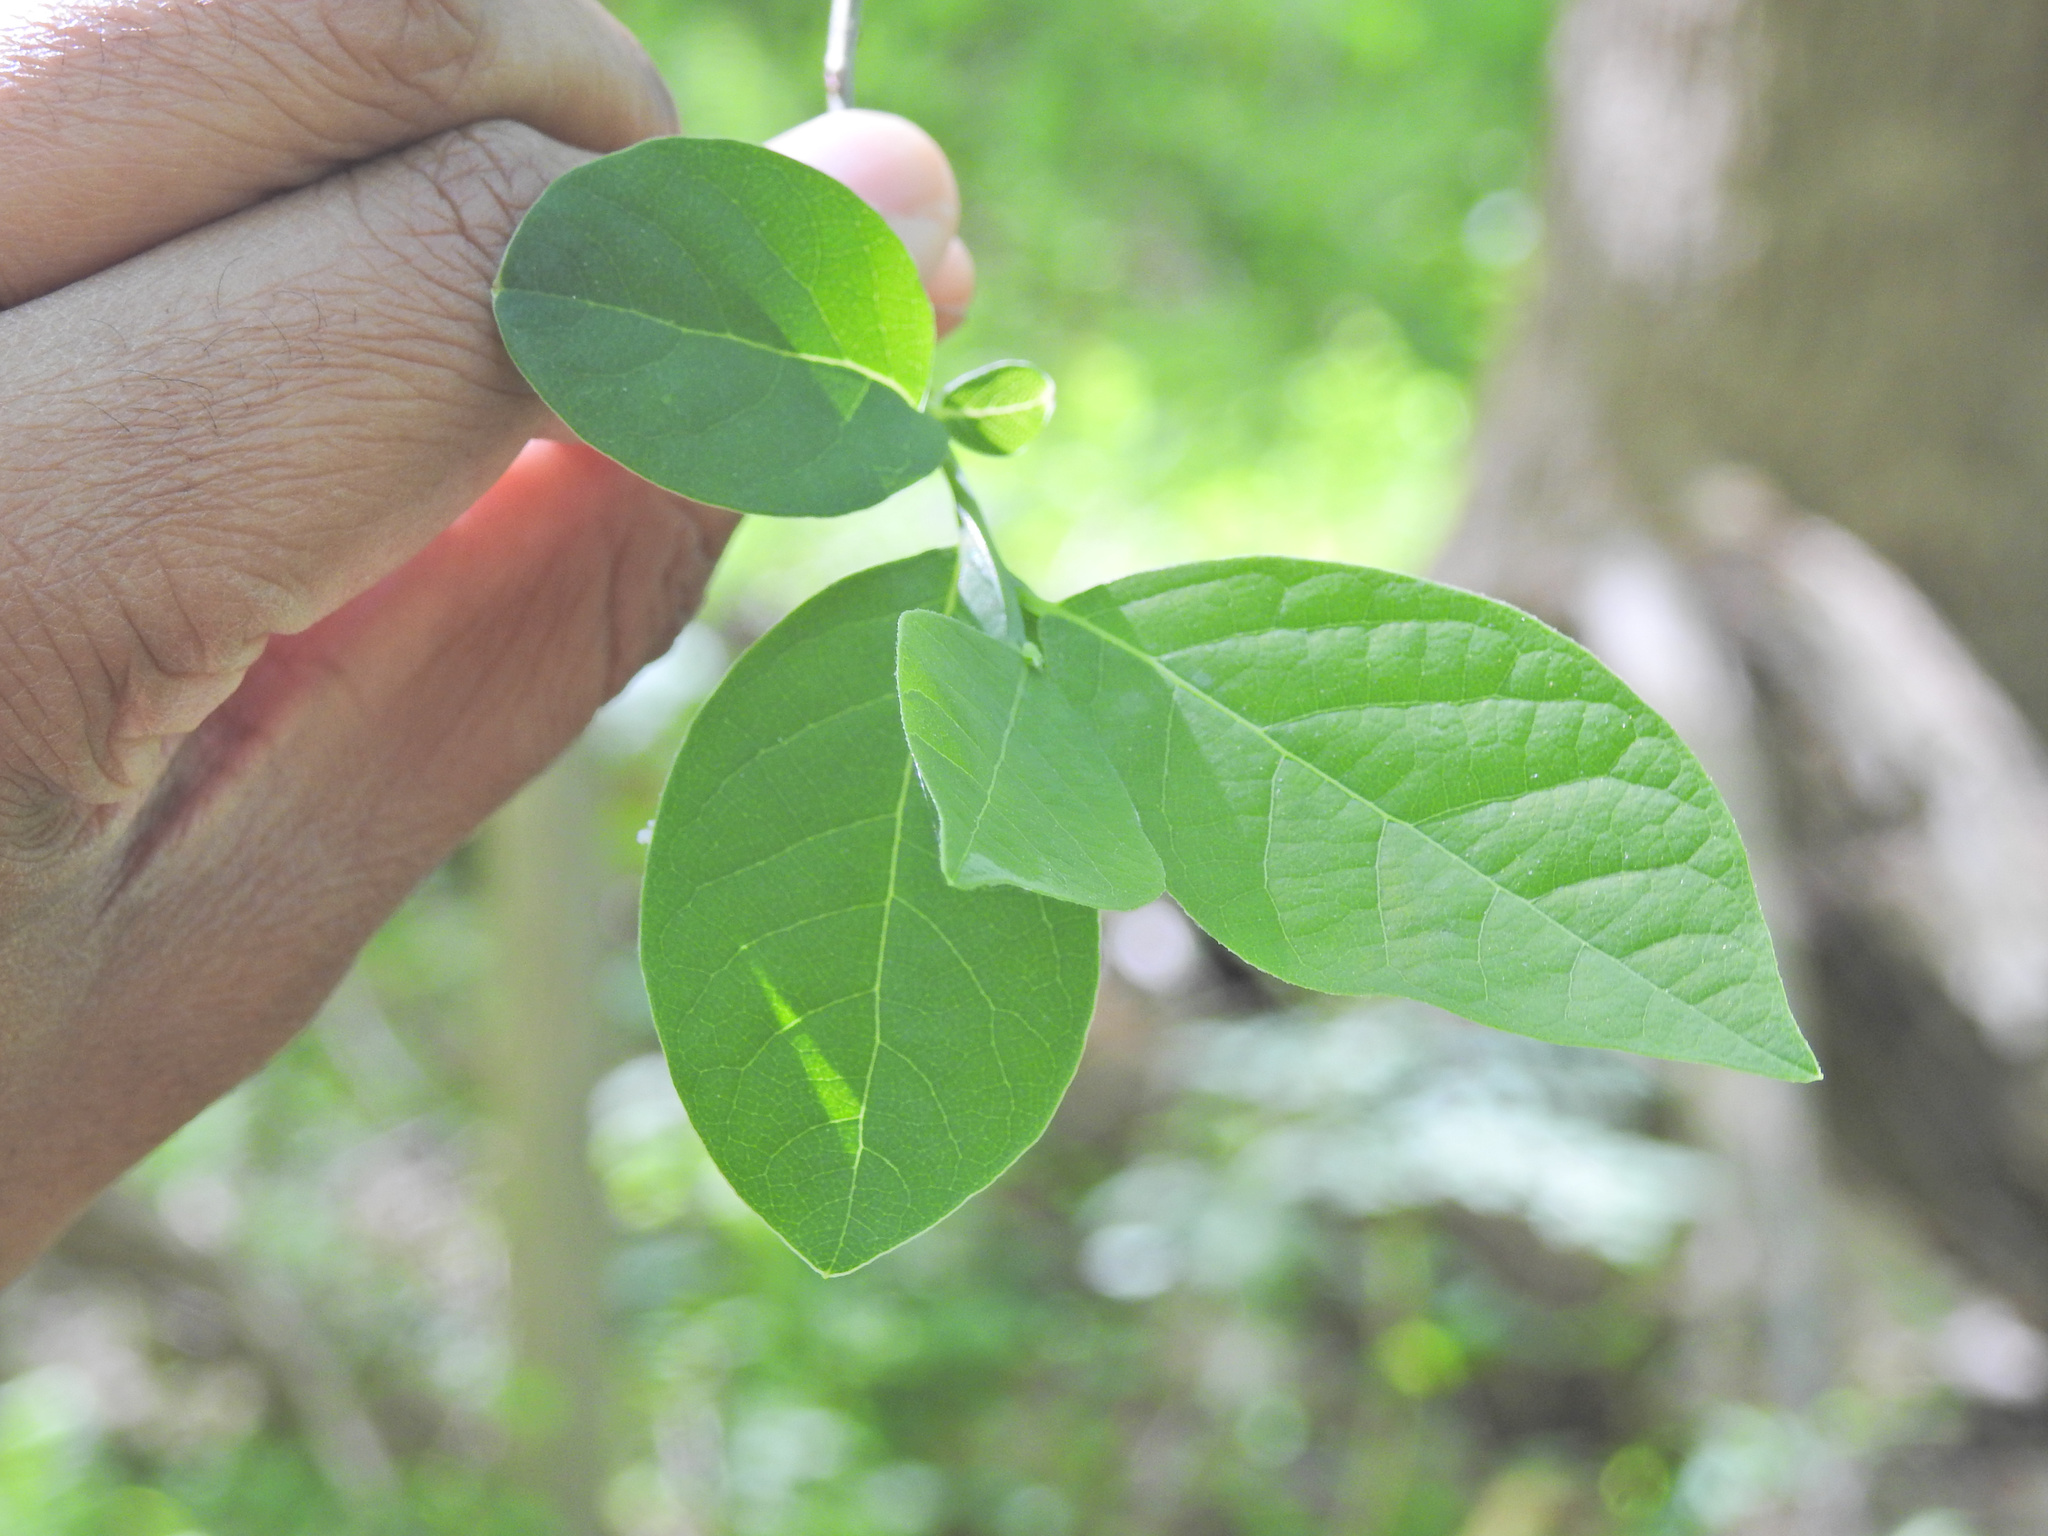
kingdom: Plantae
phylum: Tracheophyta
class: Magnoliopsida
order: Laurales
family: Lauraceae
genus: Lindera
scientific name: Lindera benzoin
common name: Spicebush
